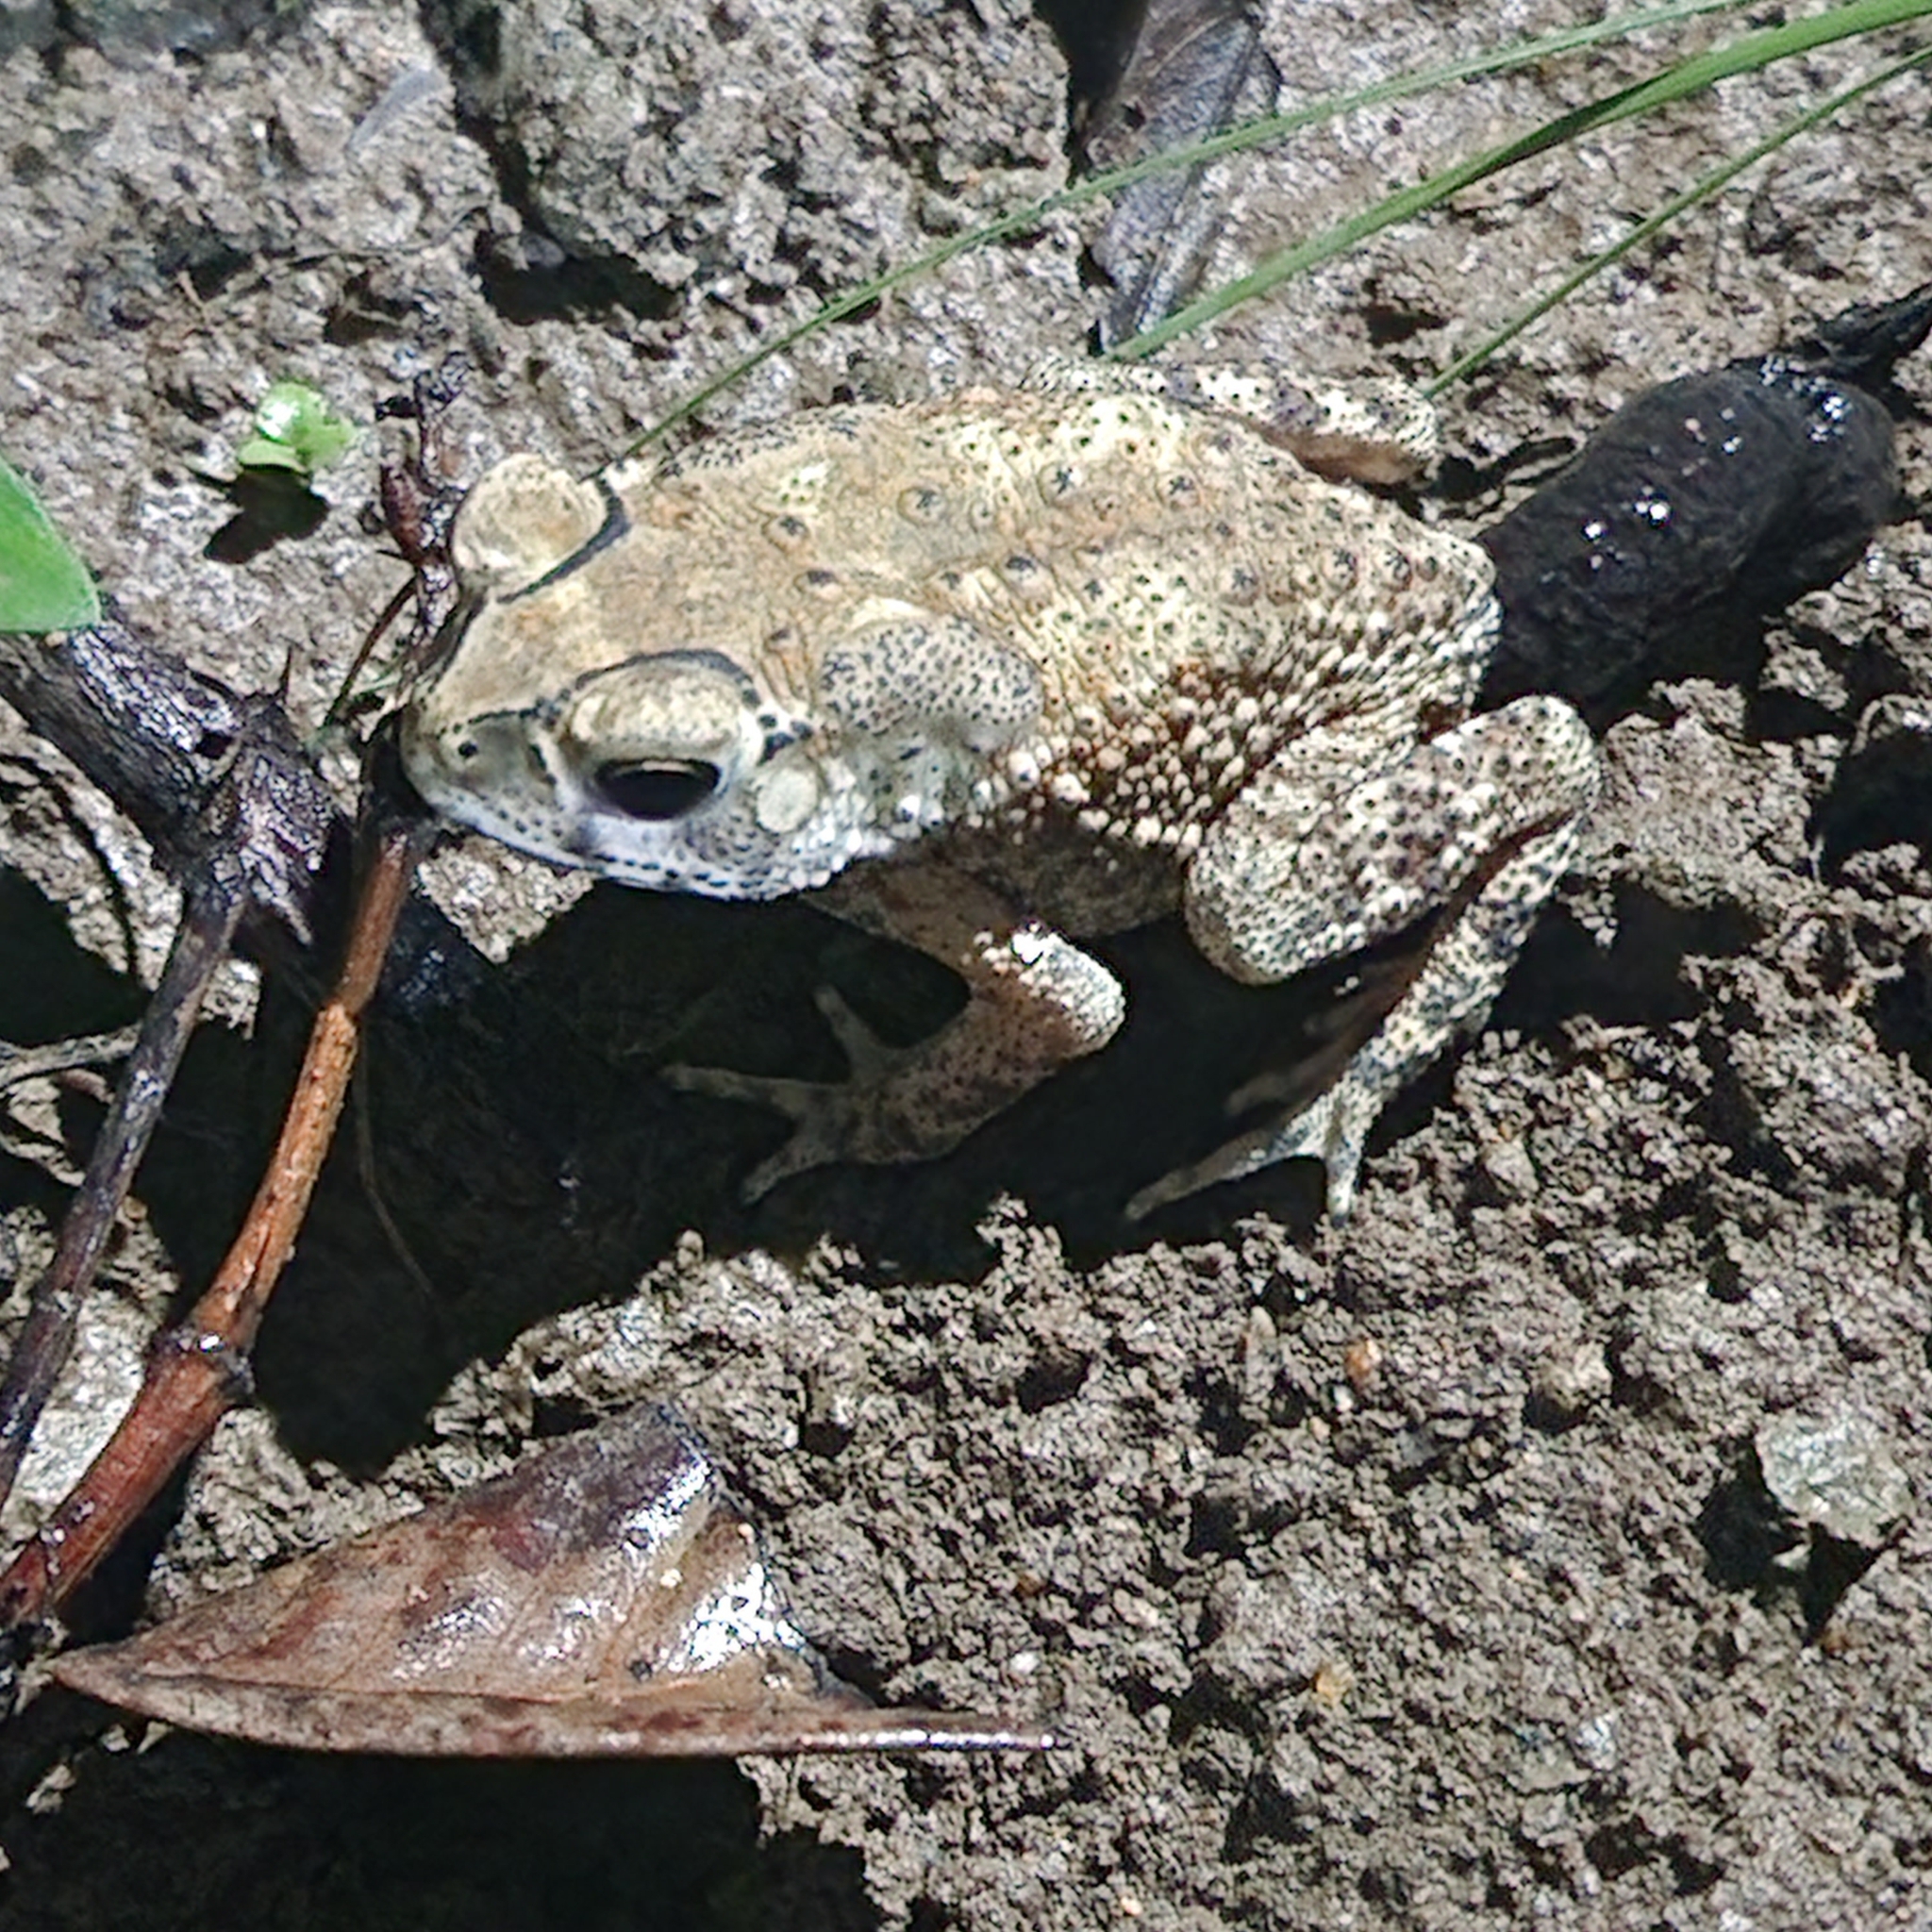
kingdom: Animalia
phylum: Chordata
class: Amphibia
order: Anura
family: Bufonidae
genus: Duttaphrynus
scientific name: Duttaphrynus melanostictus
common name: Common sunda toad
